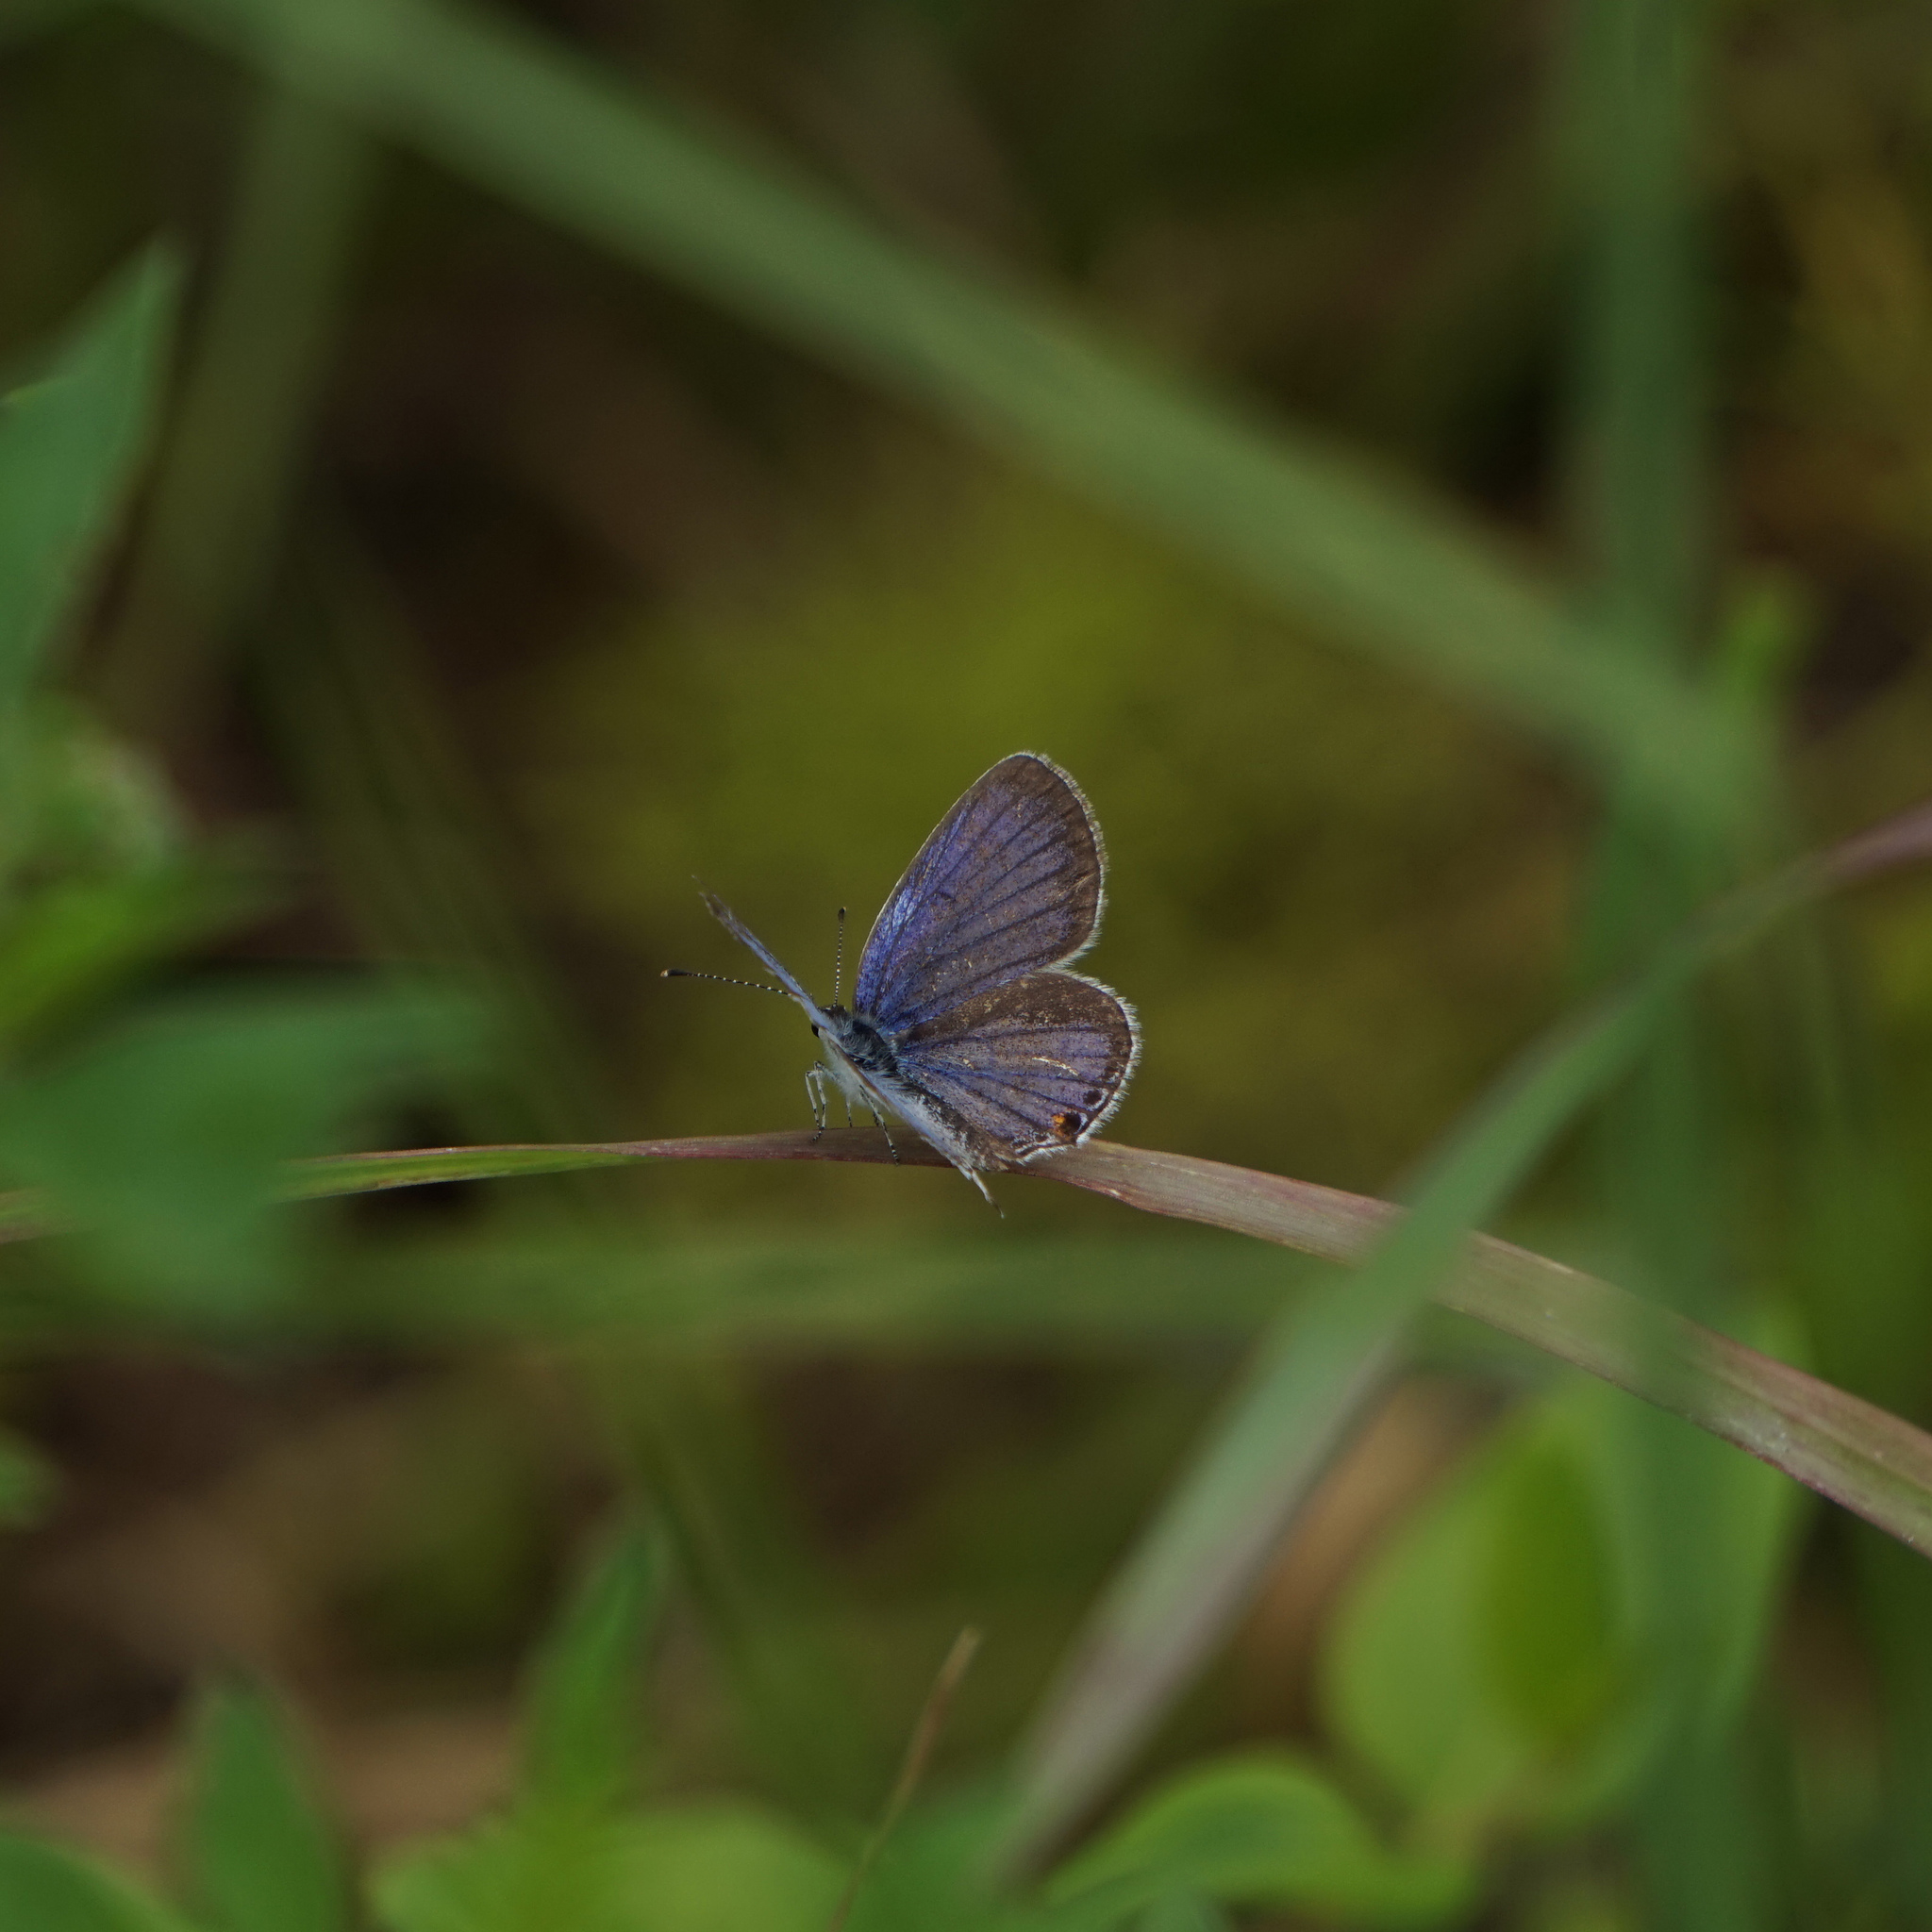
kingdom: Animalia
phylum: Arthropoda
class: Insecta
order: Lepidoptera
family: Lycaenidae
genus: Elkalyce
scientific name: Elkalyce comyntas
